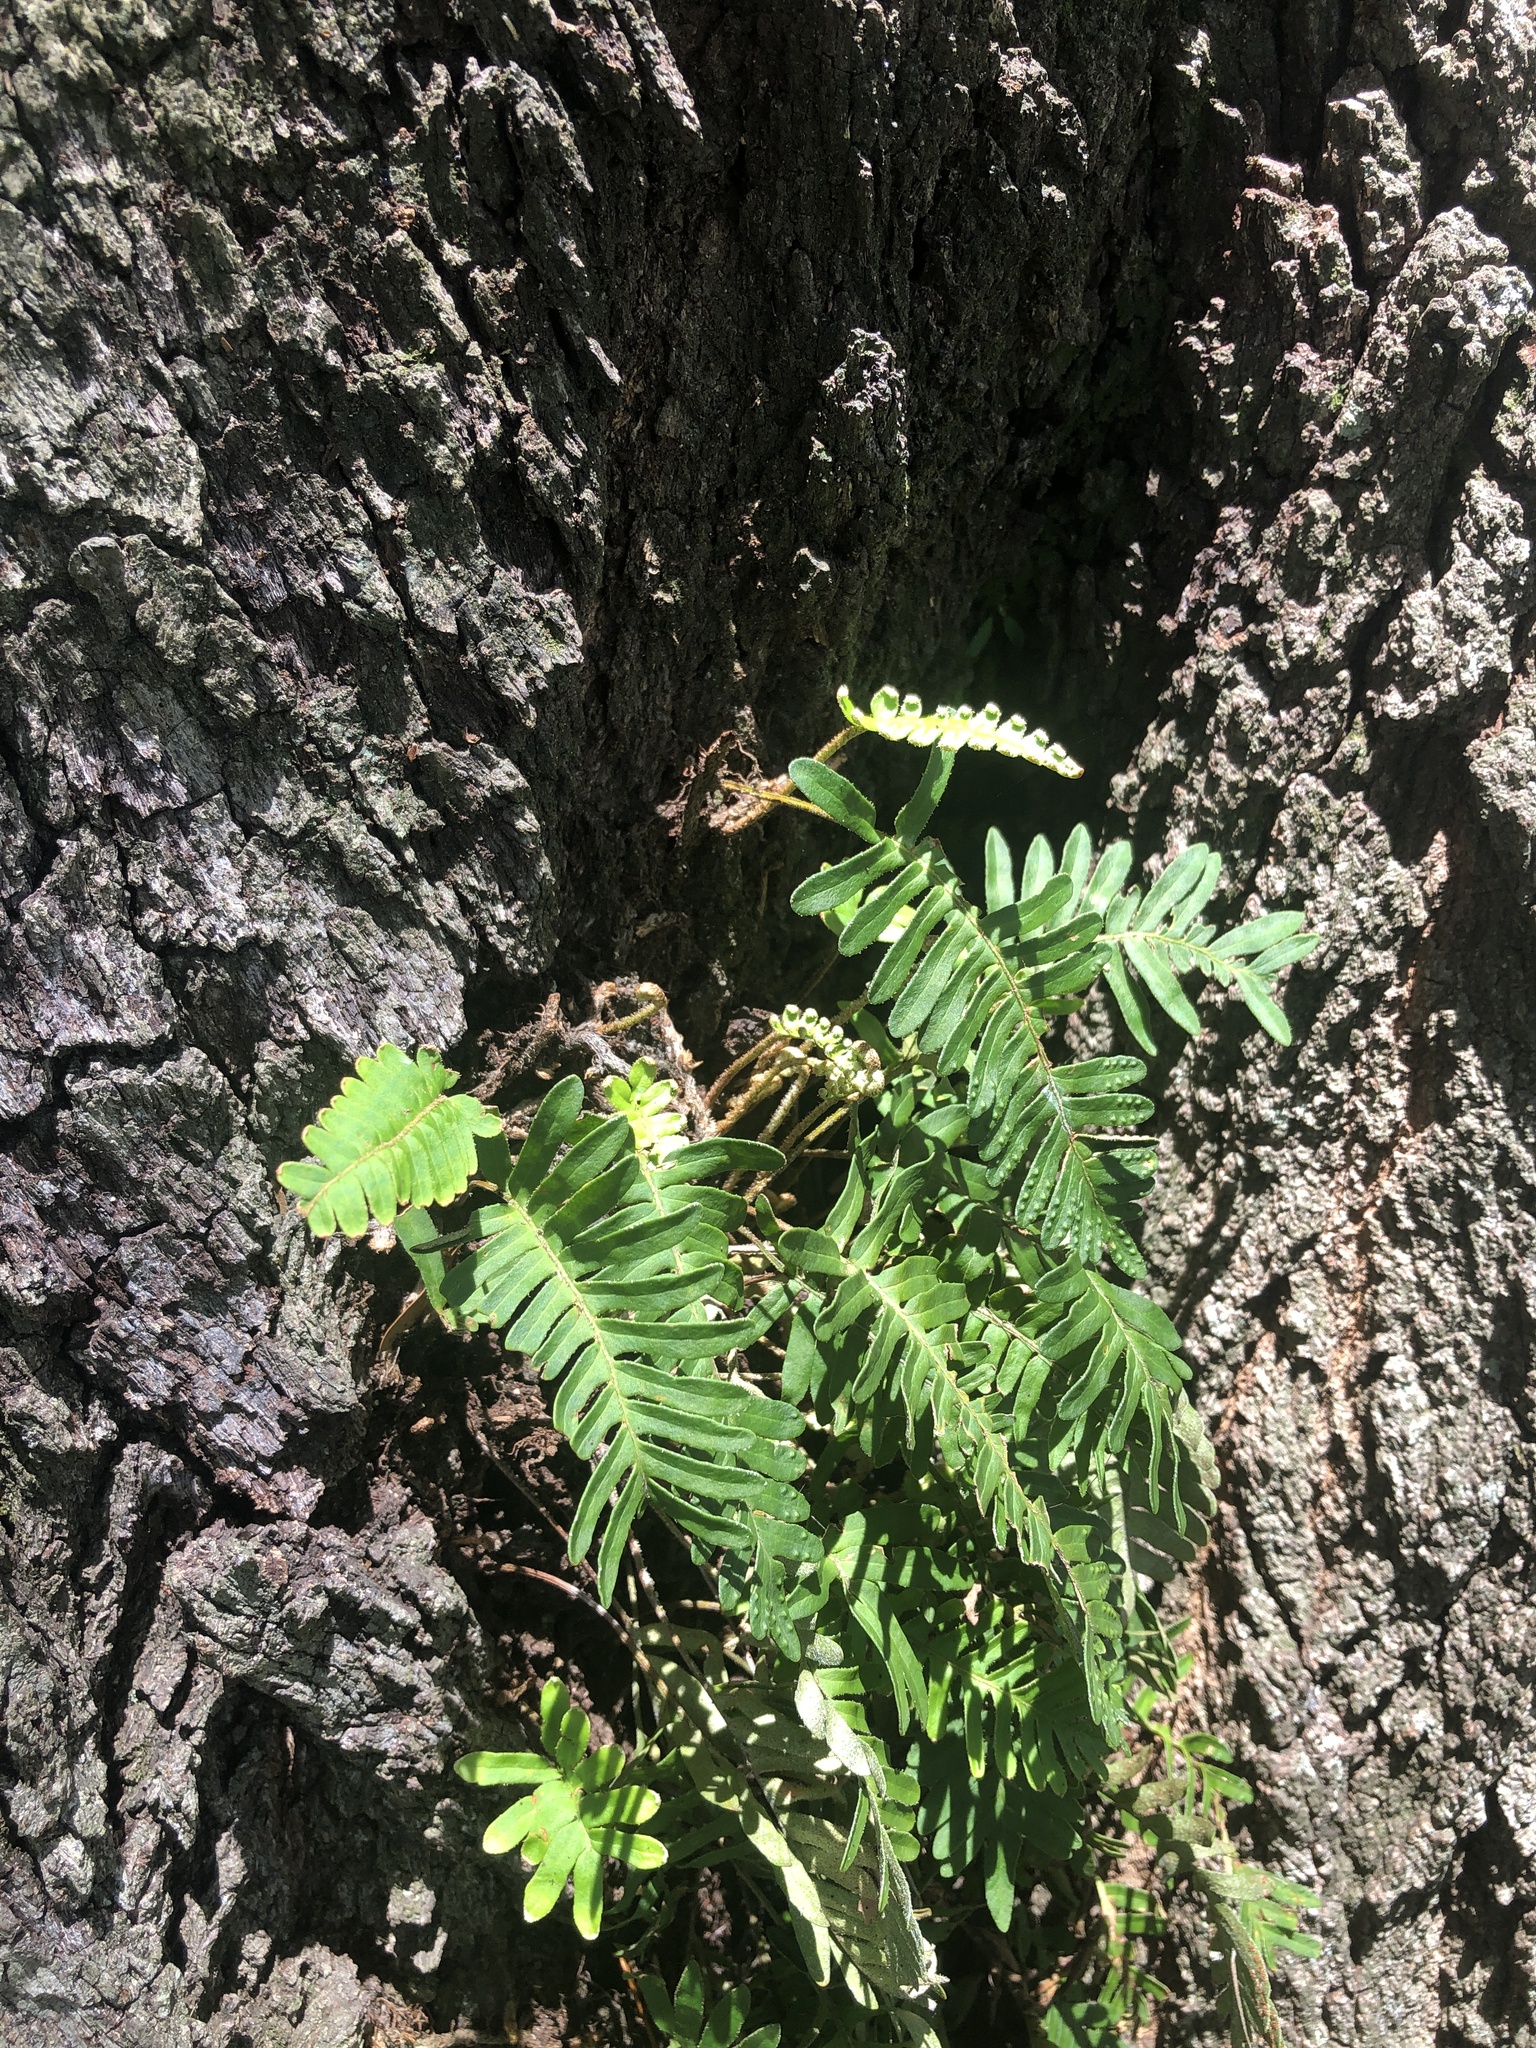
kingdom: Plantae
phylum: Tracheophyta
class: Polypodiopsida
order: Polypodiales
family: Polypodiaceae
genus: Pleopeltis
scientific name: Pleopeltis michauxiana
